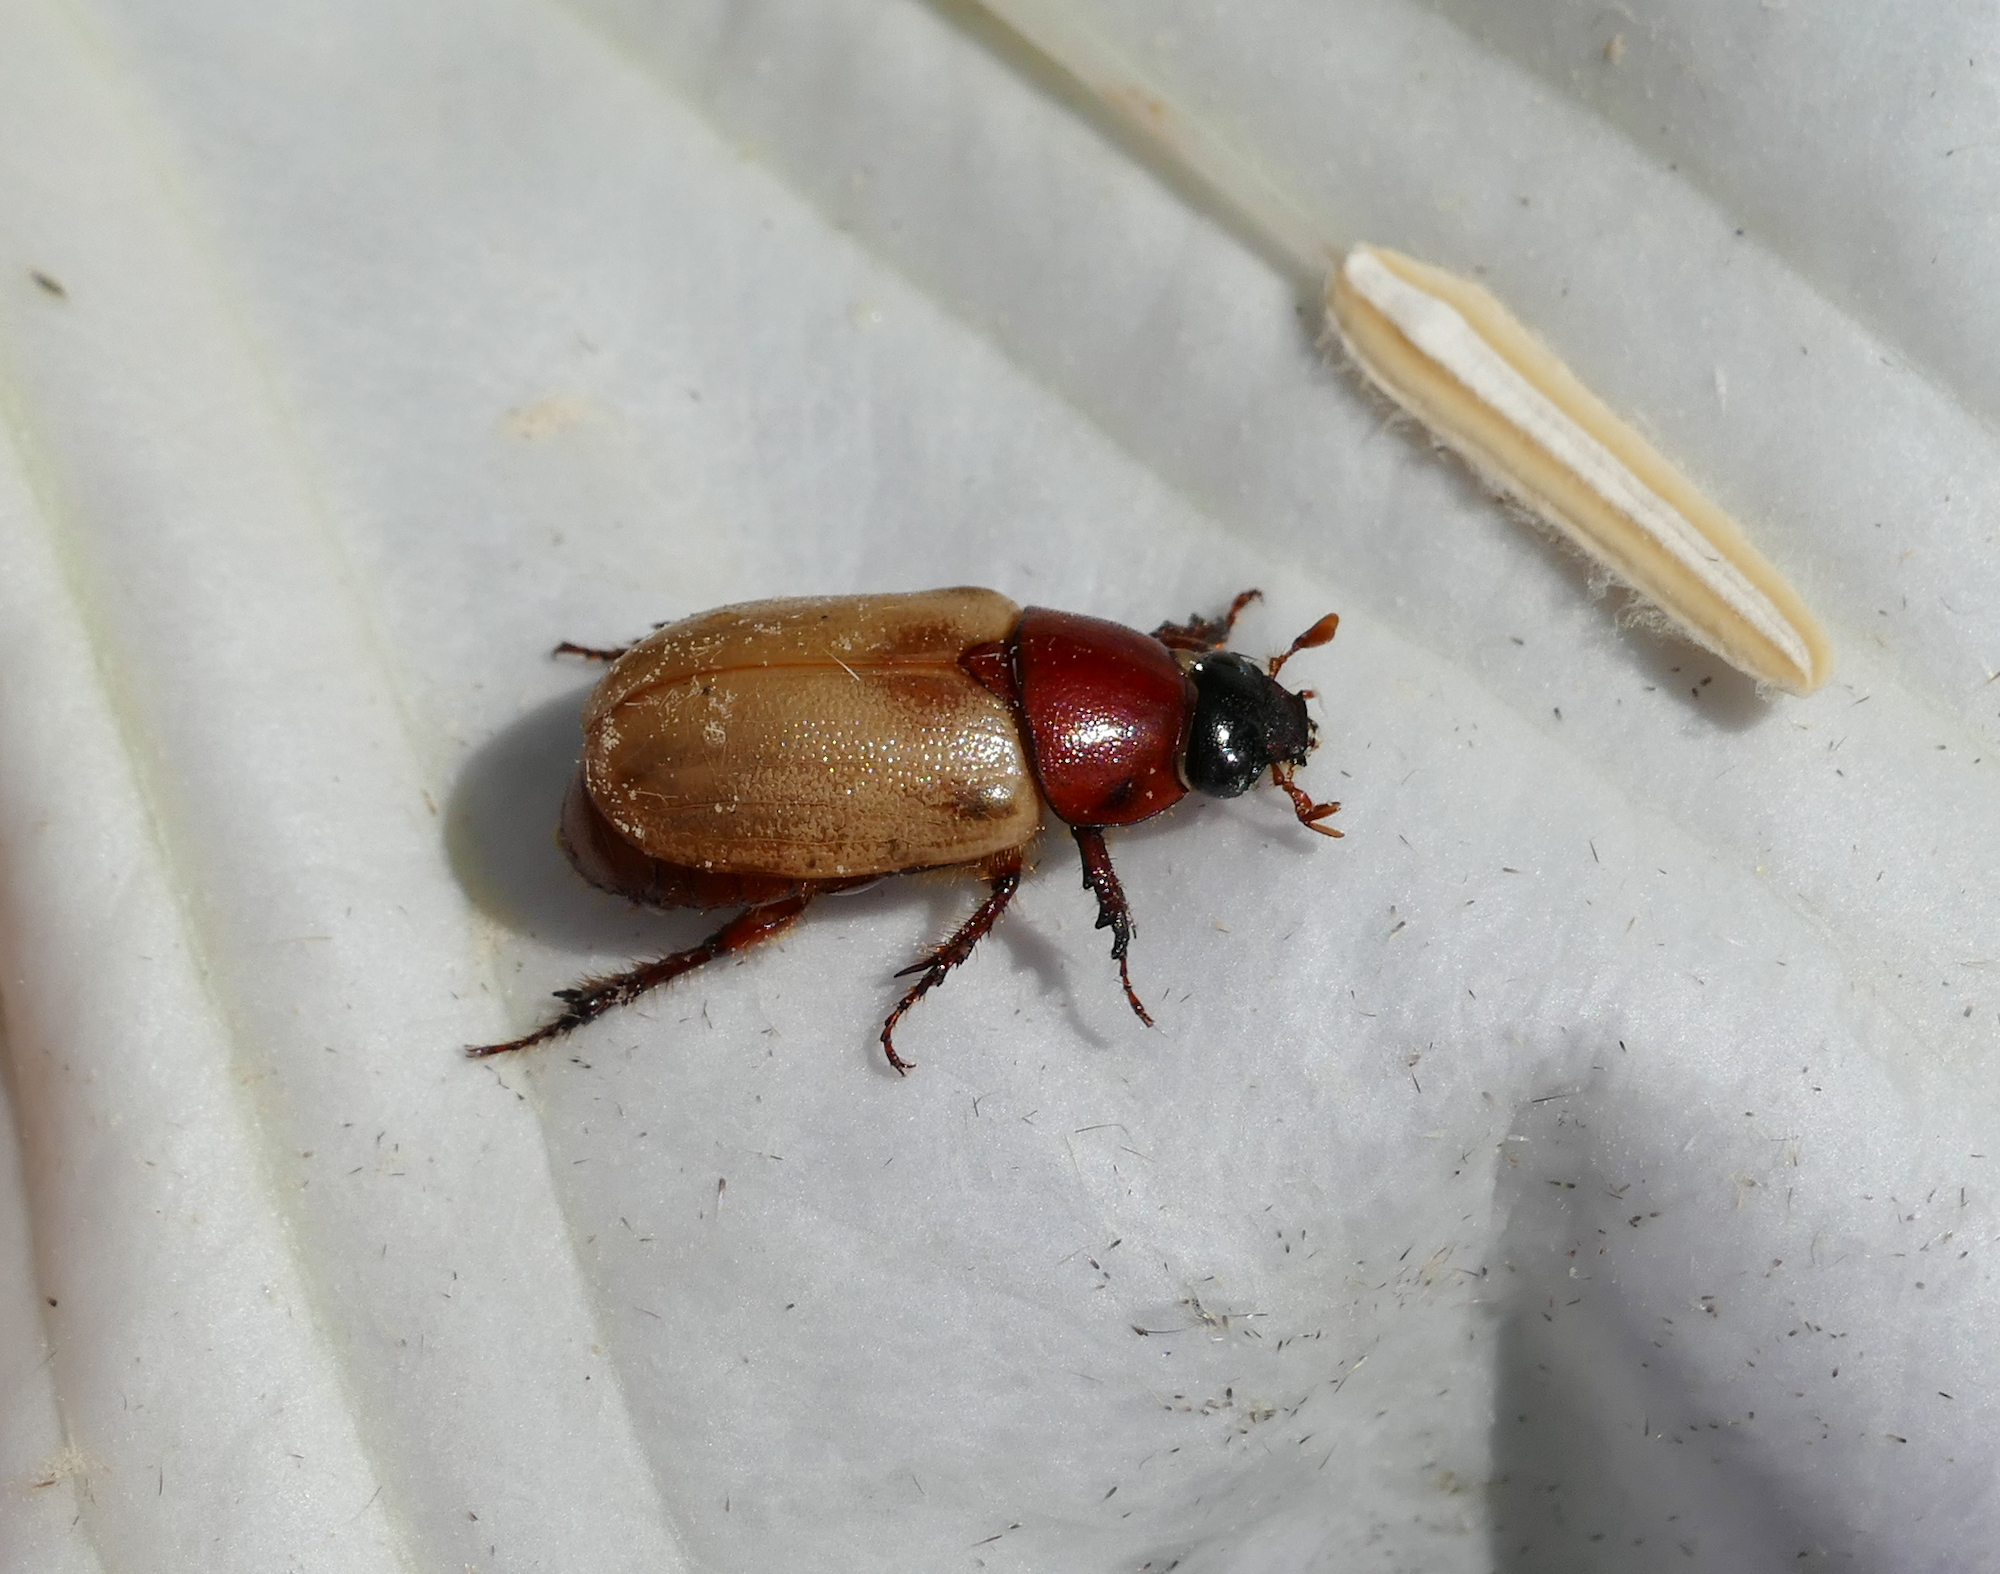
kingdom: Animalia
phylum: Arthropoda
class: Insecta
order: Coleoptera
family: Scarabaeidae
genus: Cyclocephala
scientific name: Cyclocephala melanocephala
